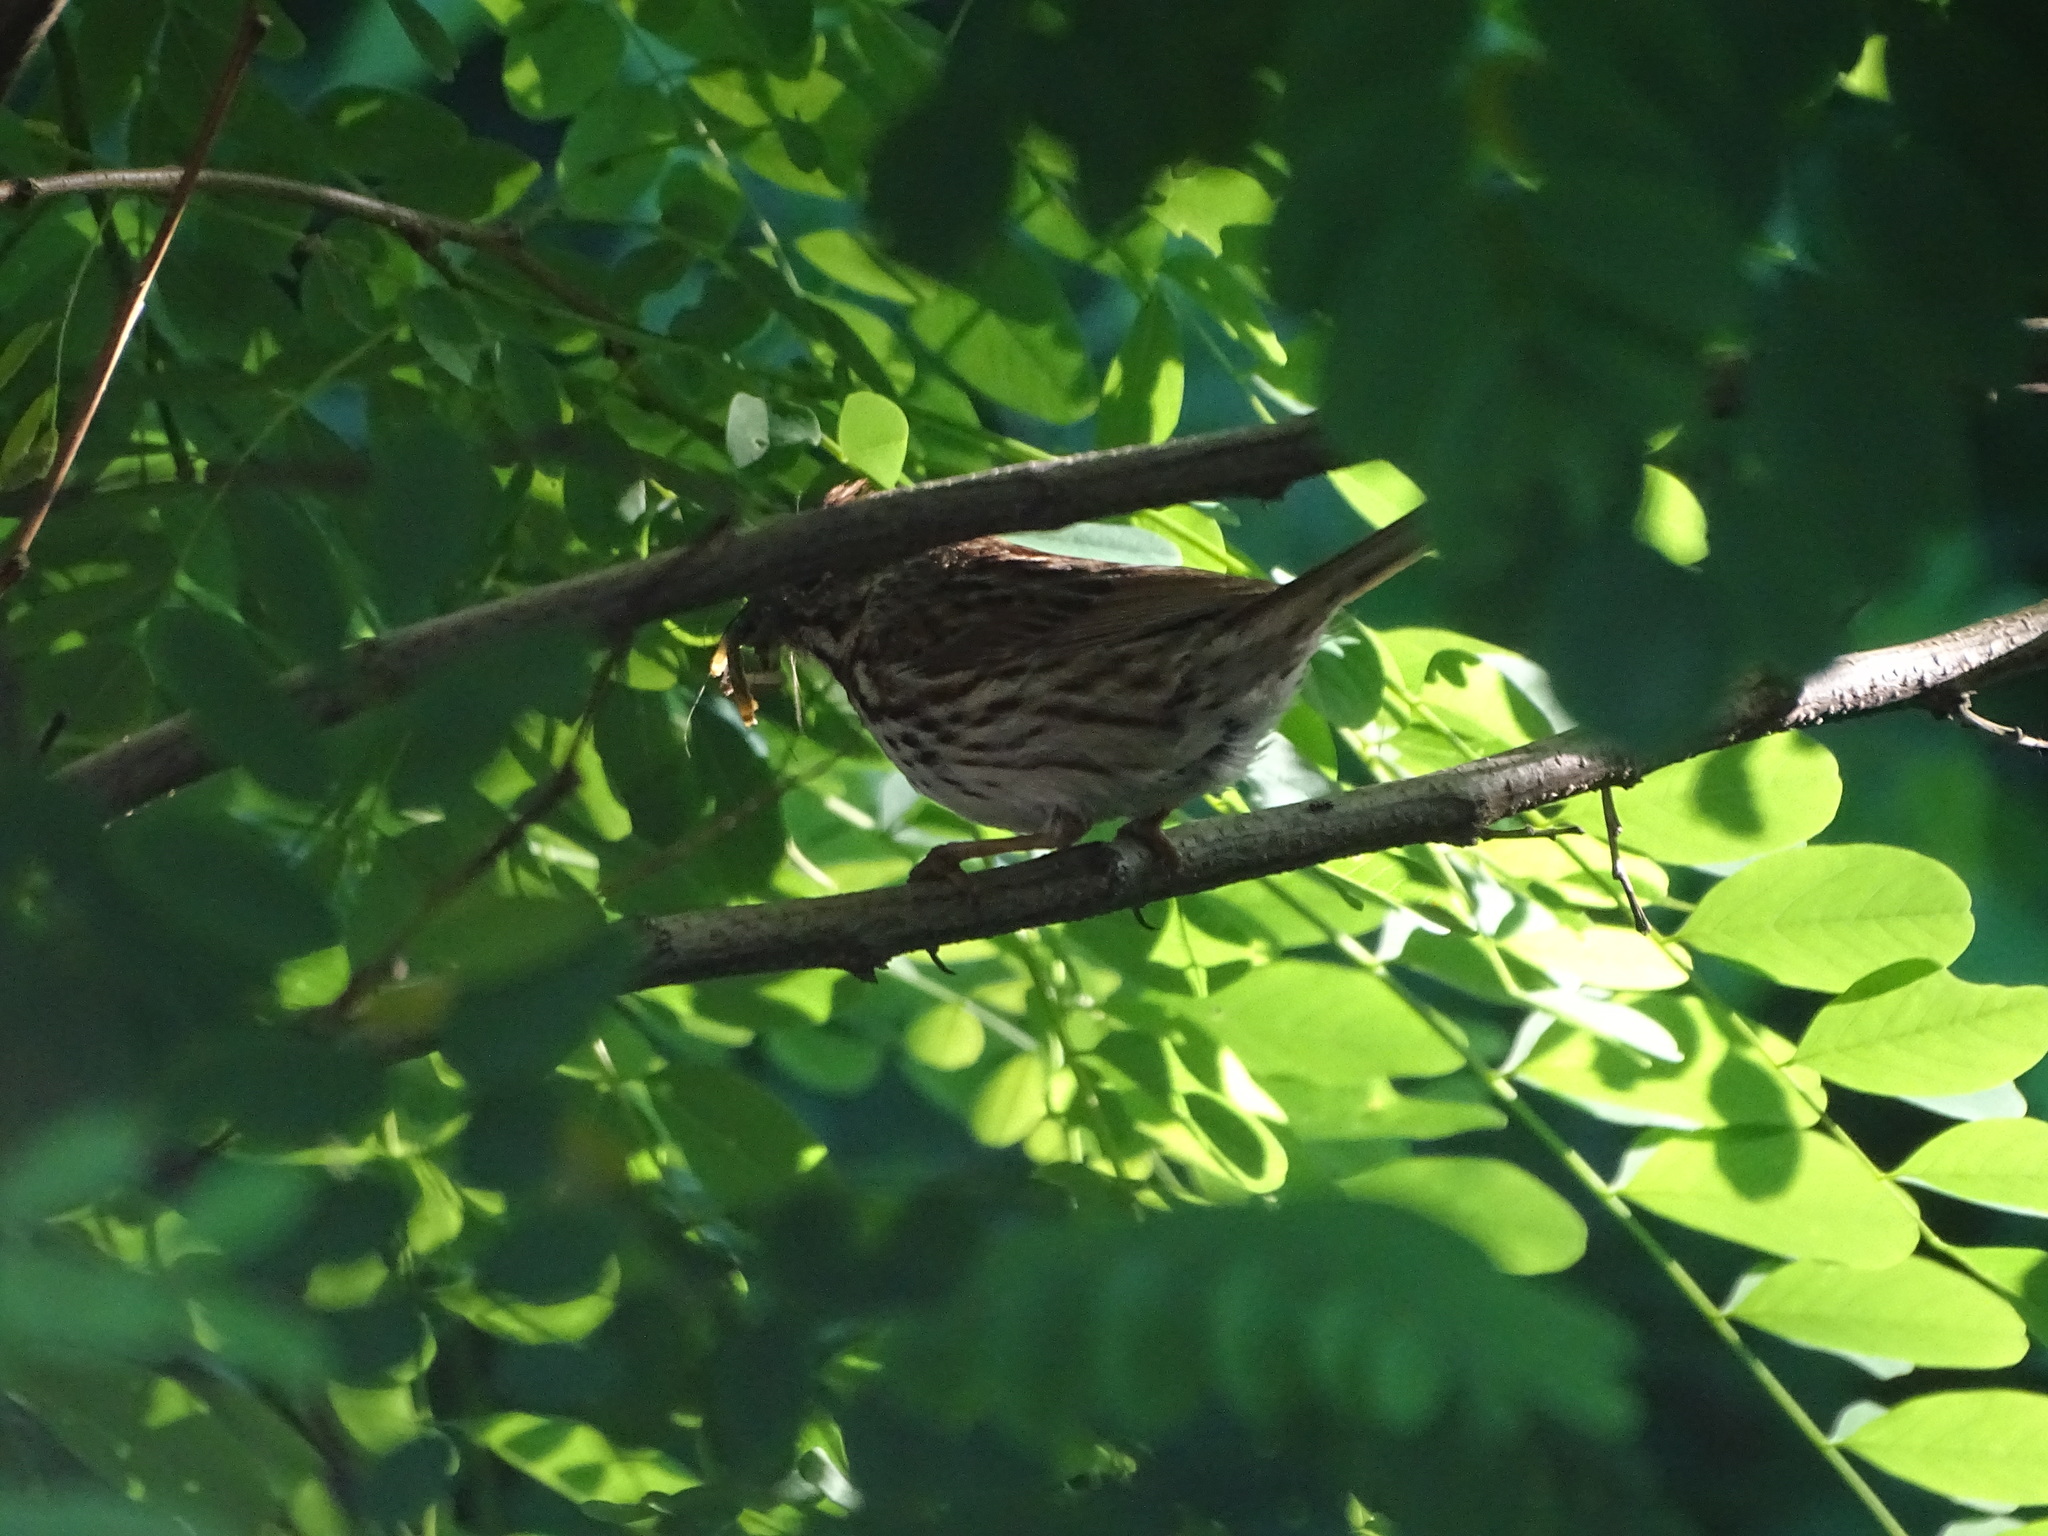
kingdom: Animalia
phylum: Chordata
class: Aves
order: Passeriformes
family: Passerellidae
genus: Melospiza
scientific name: Melospiza melodia
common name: Song sparrow
